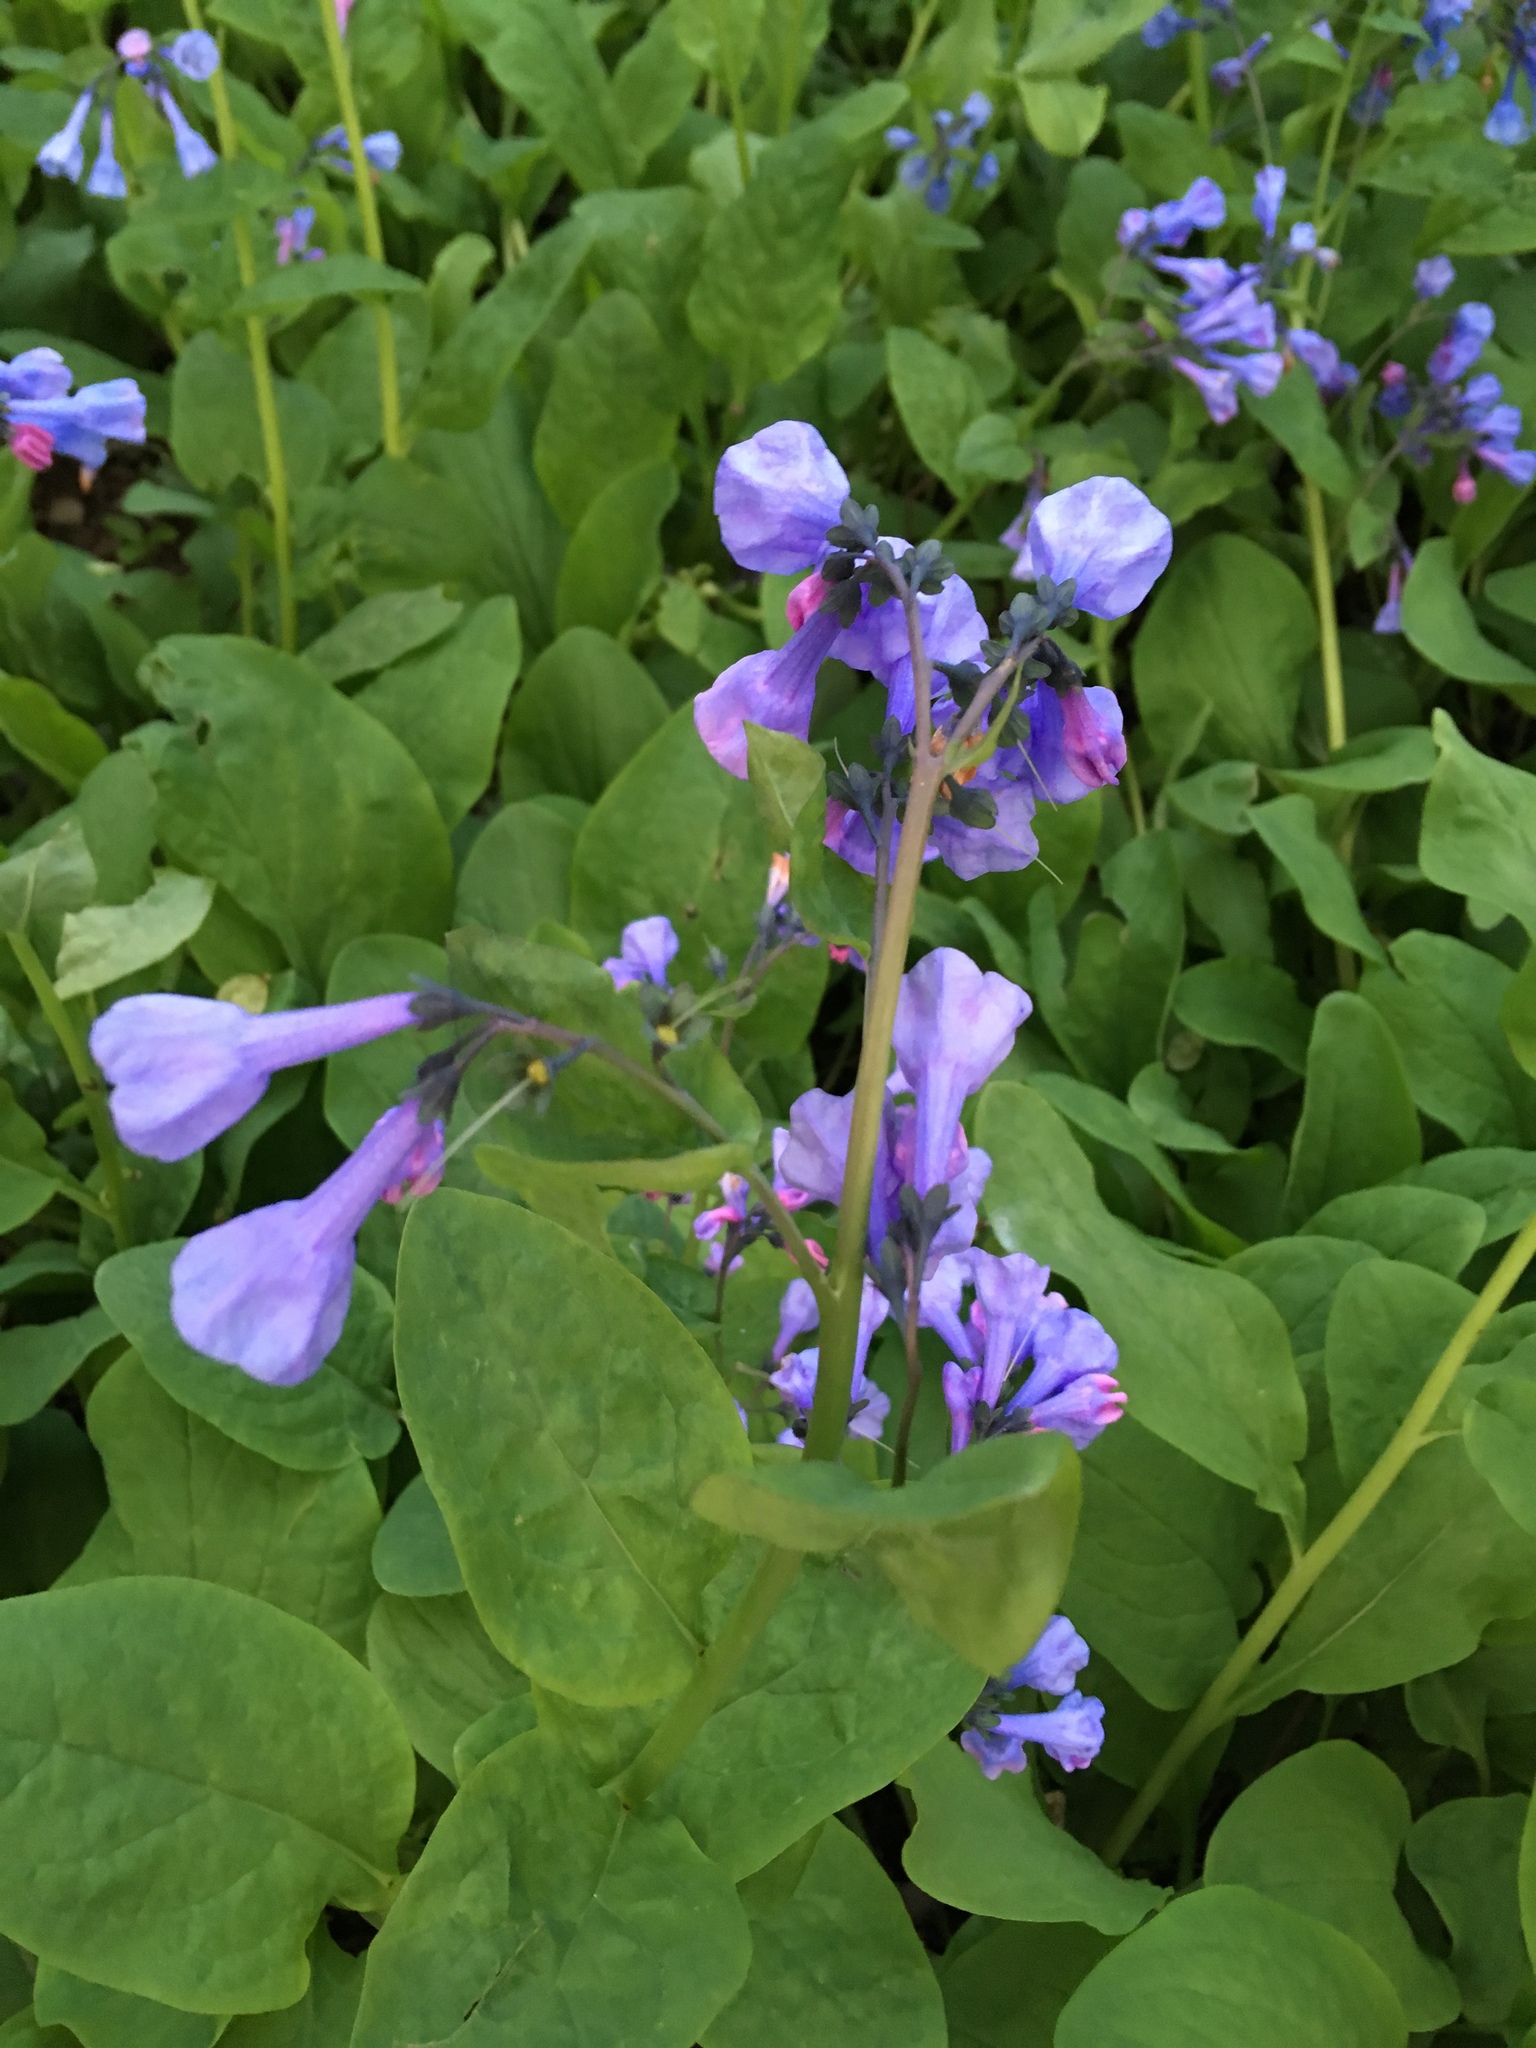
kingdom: Plantae
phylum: Tracheophyta
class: Magnoliopsida
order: Boraginales
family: Boraginaceae
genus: Mertensia
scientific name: Mertensia virginica
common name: Virginia bluebells
